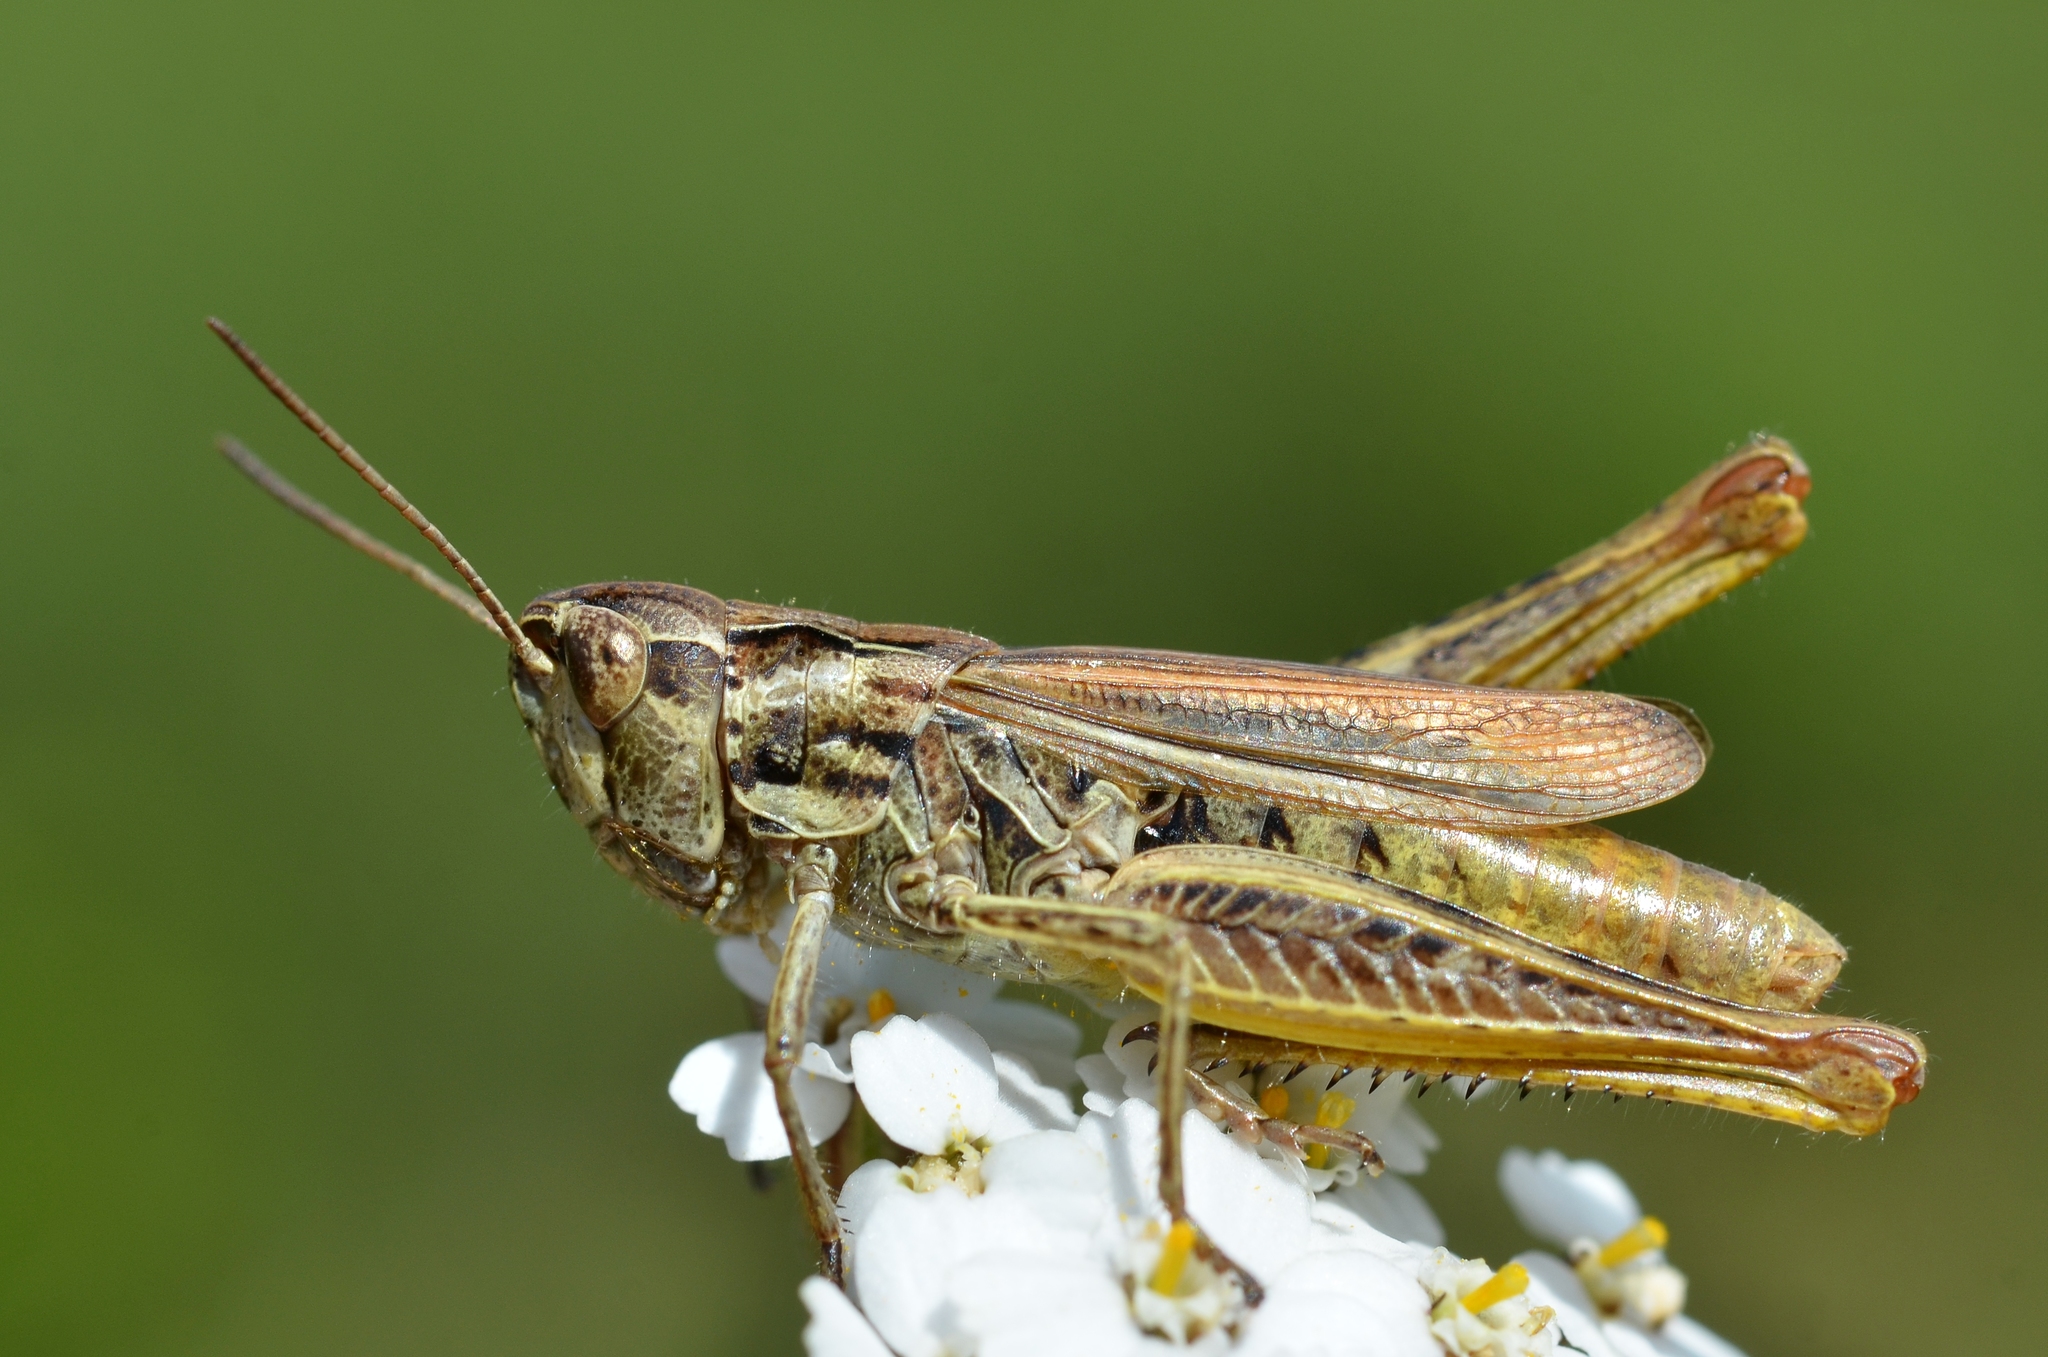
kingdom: Animalia
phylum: Arthropoda
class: Insecta
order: Orthoptera
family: Acrididae
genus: Chorthippus
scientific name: Chorthippus apricarius
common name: Upland field grasshopper
